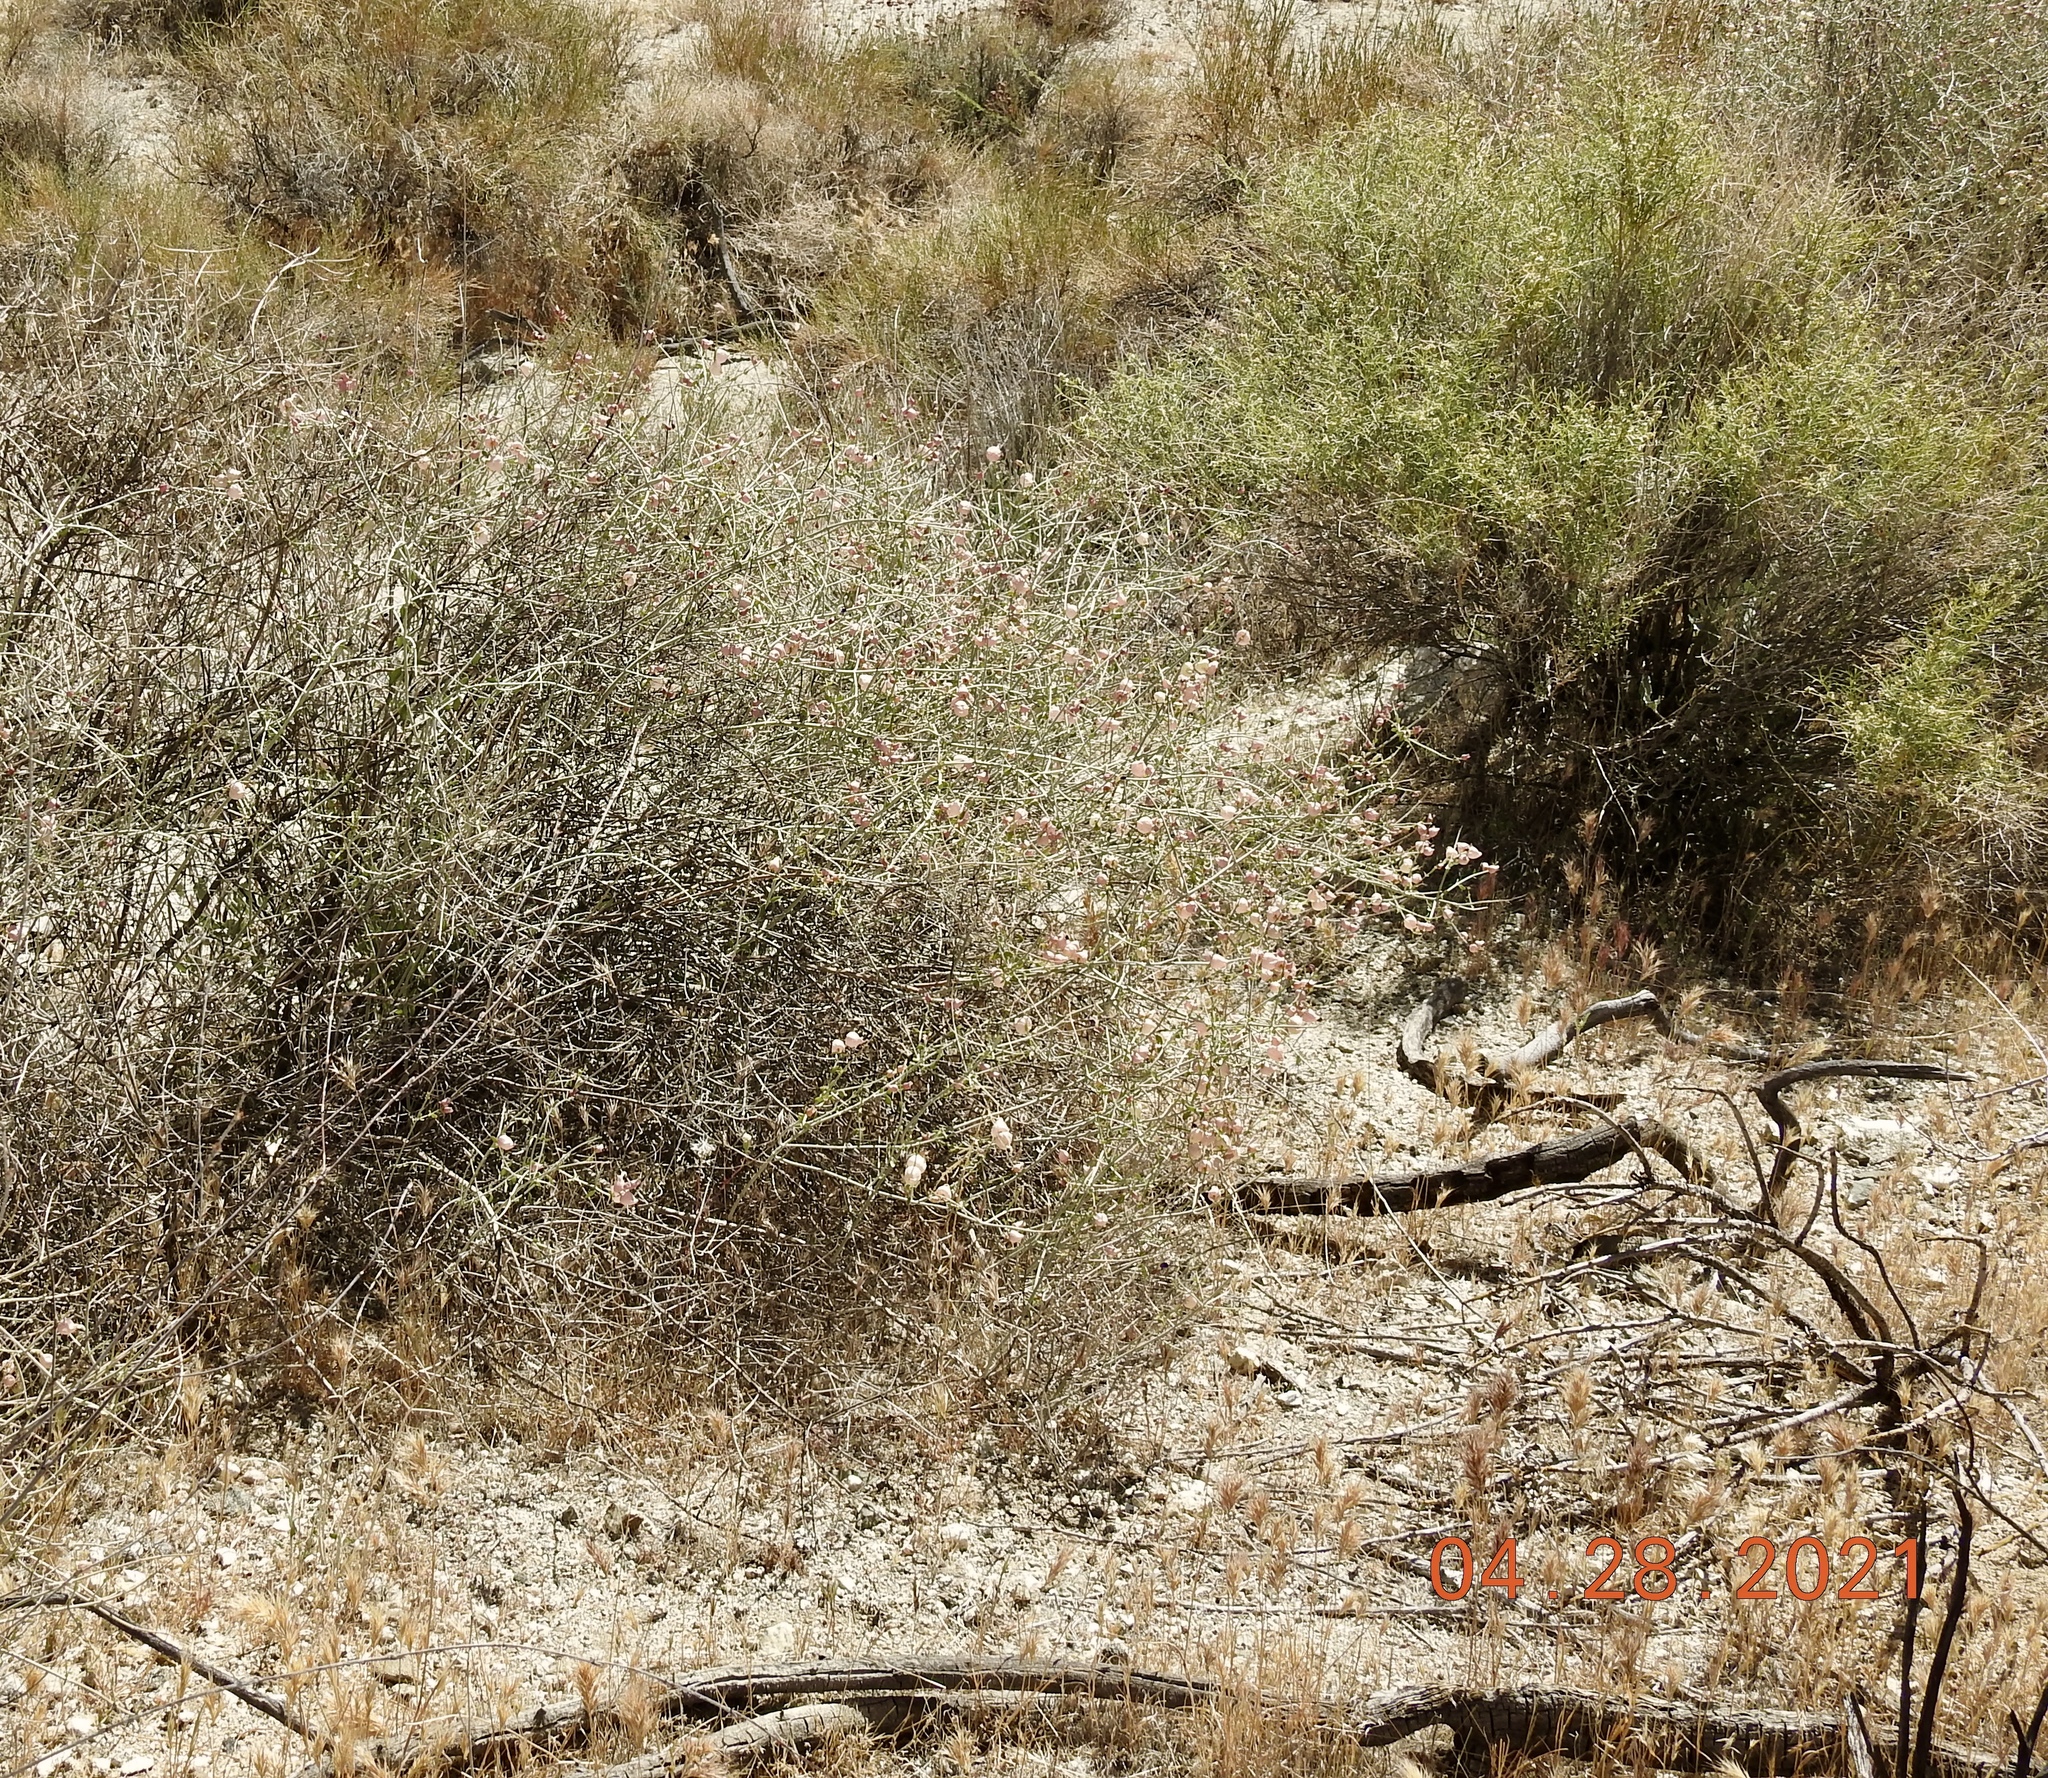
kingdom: Plantae
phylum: Tracheophyta
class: Magnoliopsida
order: Lamiales
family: Lamiaceae
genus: Scutellaria
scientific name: Scutellaria mexicana
